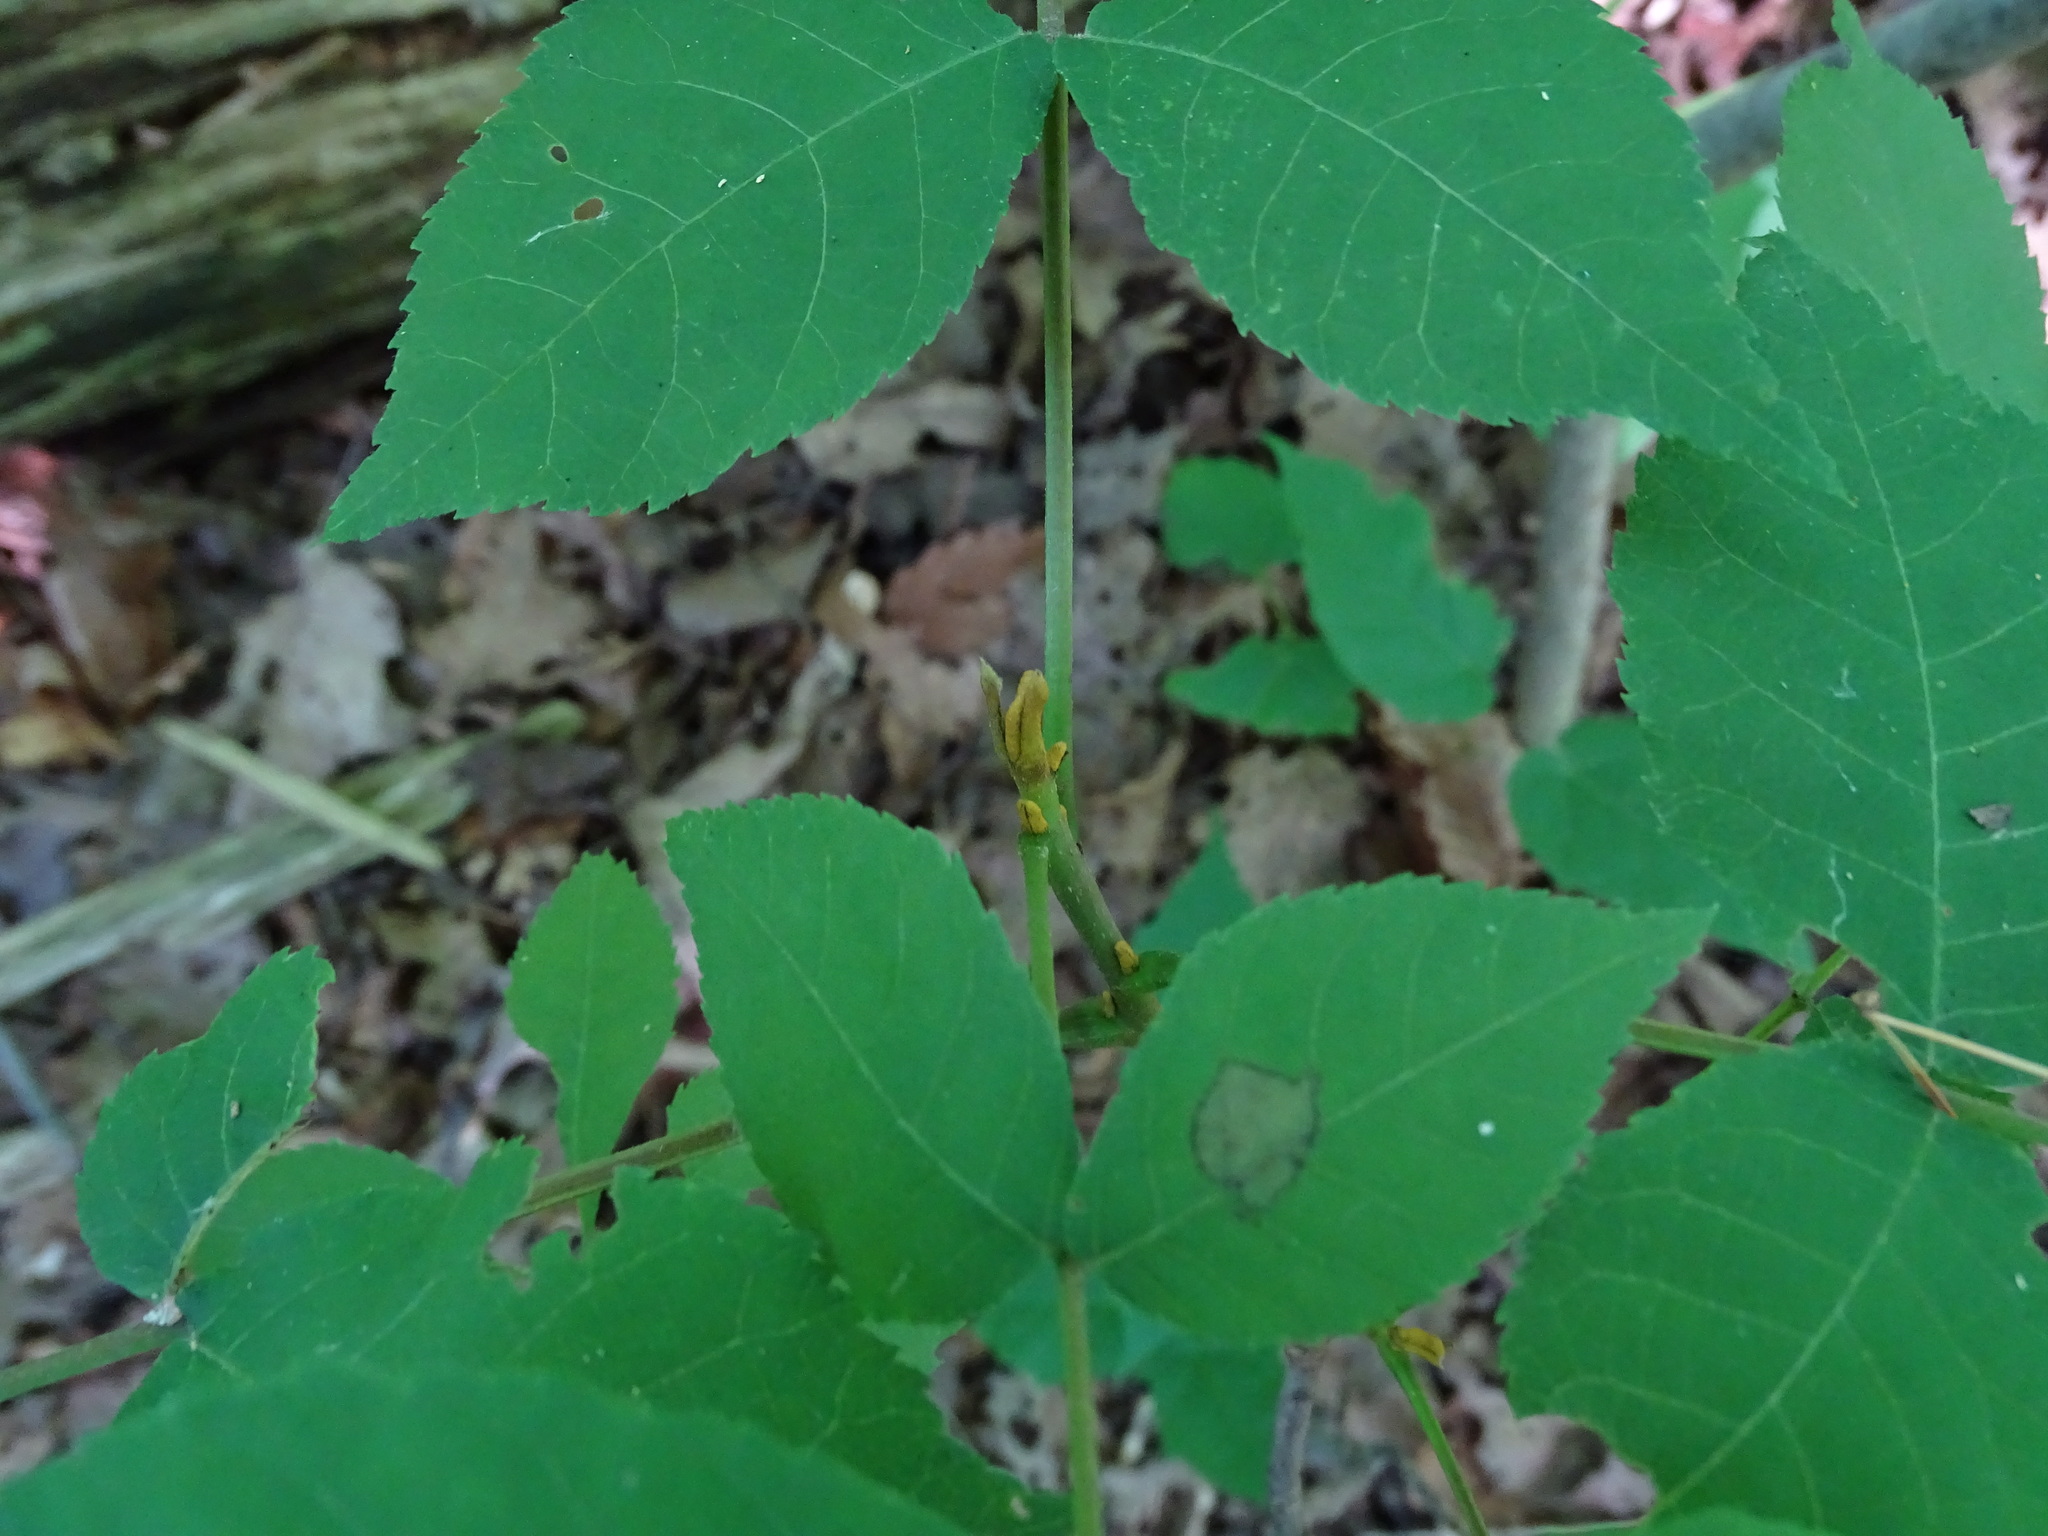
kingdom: Plantae
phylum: Tracheophyta
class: Magnoliopsida
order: Fagales
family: Juglandaceae
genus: Carya
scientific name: Carya cordiformis
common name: Bitternut hickory
